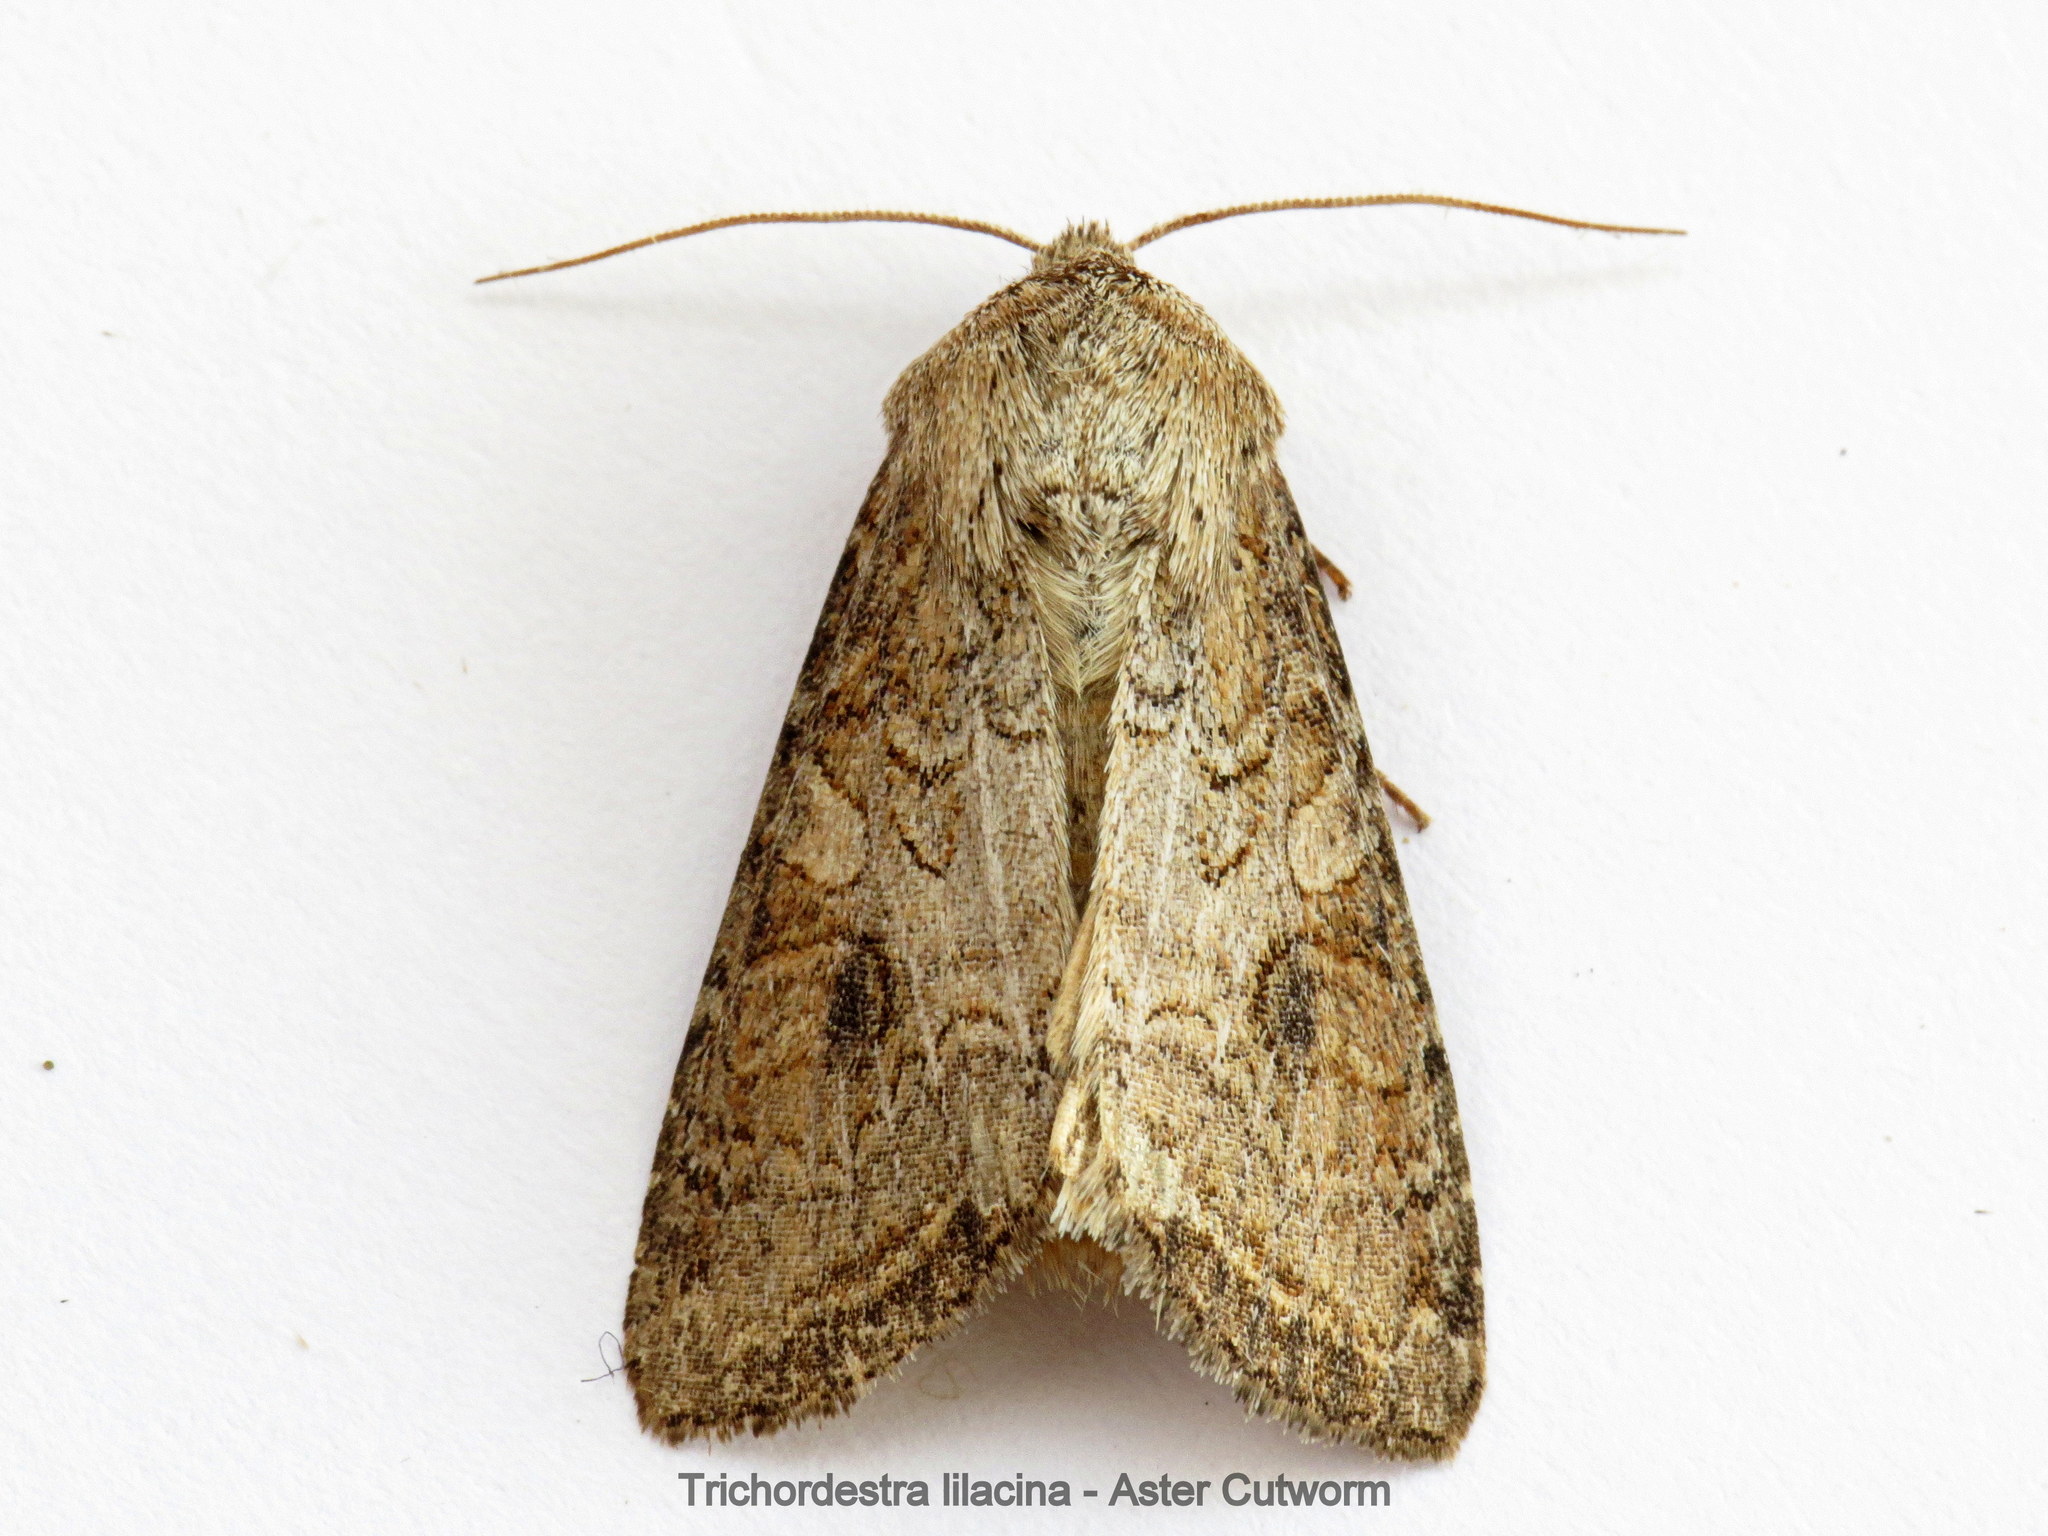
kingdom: Animalia
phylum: Arthropoda
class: Insecta
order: Lepidoptera
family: Noctuidae
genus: Trichordestra
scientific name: Trichordestra lilacina
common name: Aster cutworm
